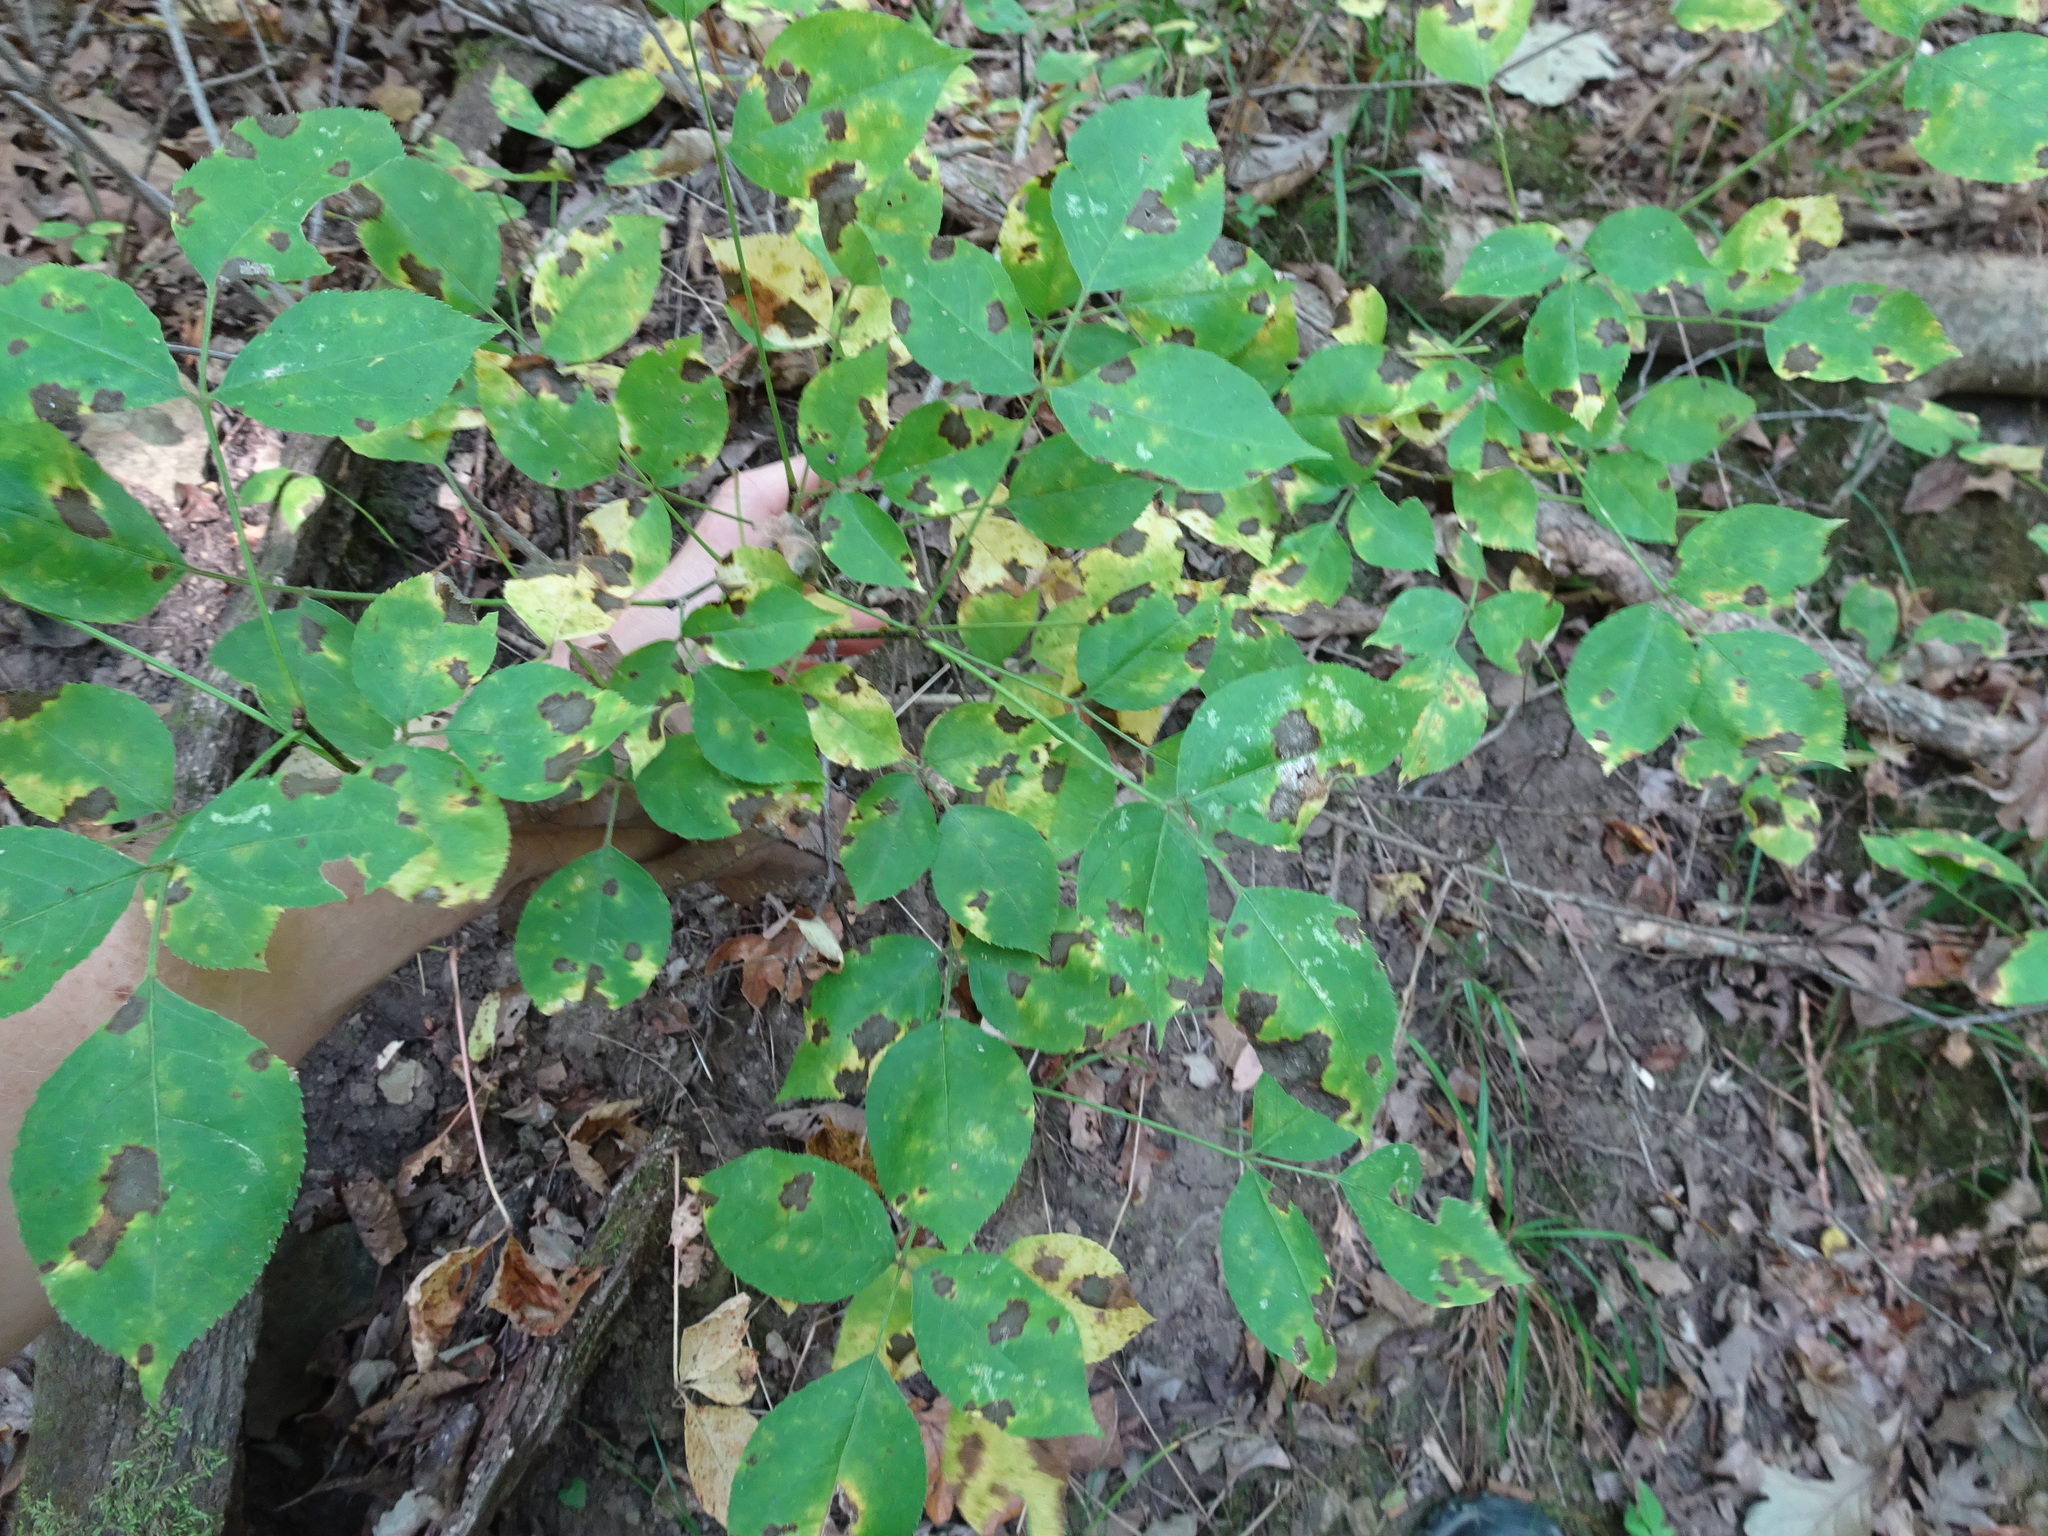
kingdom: Plantae
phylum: Tracheophyta
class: Magnoliopsida
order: Crossosomatales
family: Staphyleaceae
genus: Staphylea
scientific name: Staphylea trifolia
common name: American bladdernut
